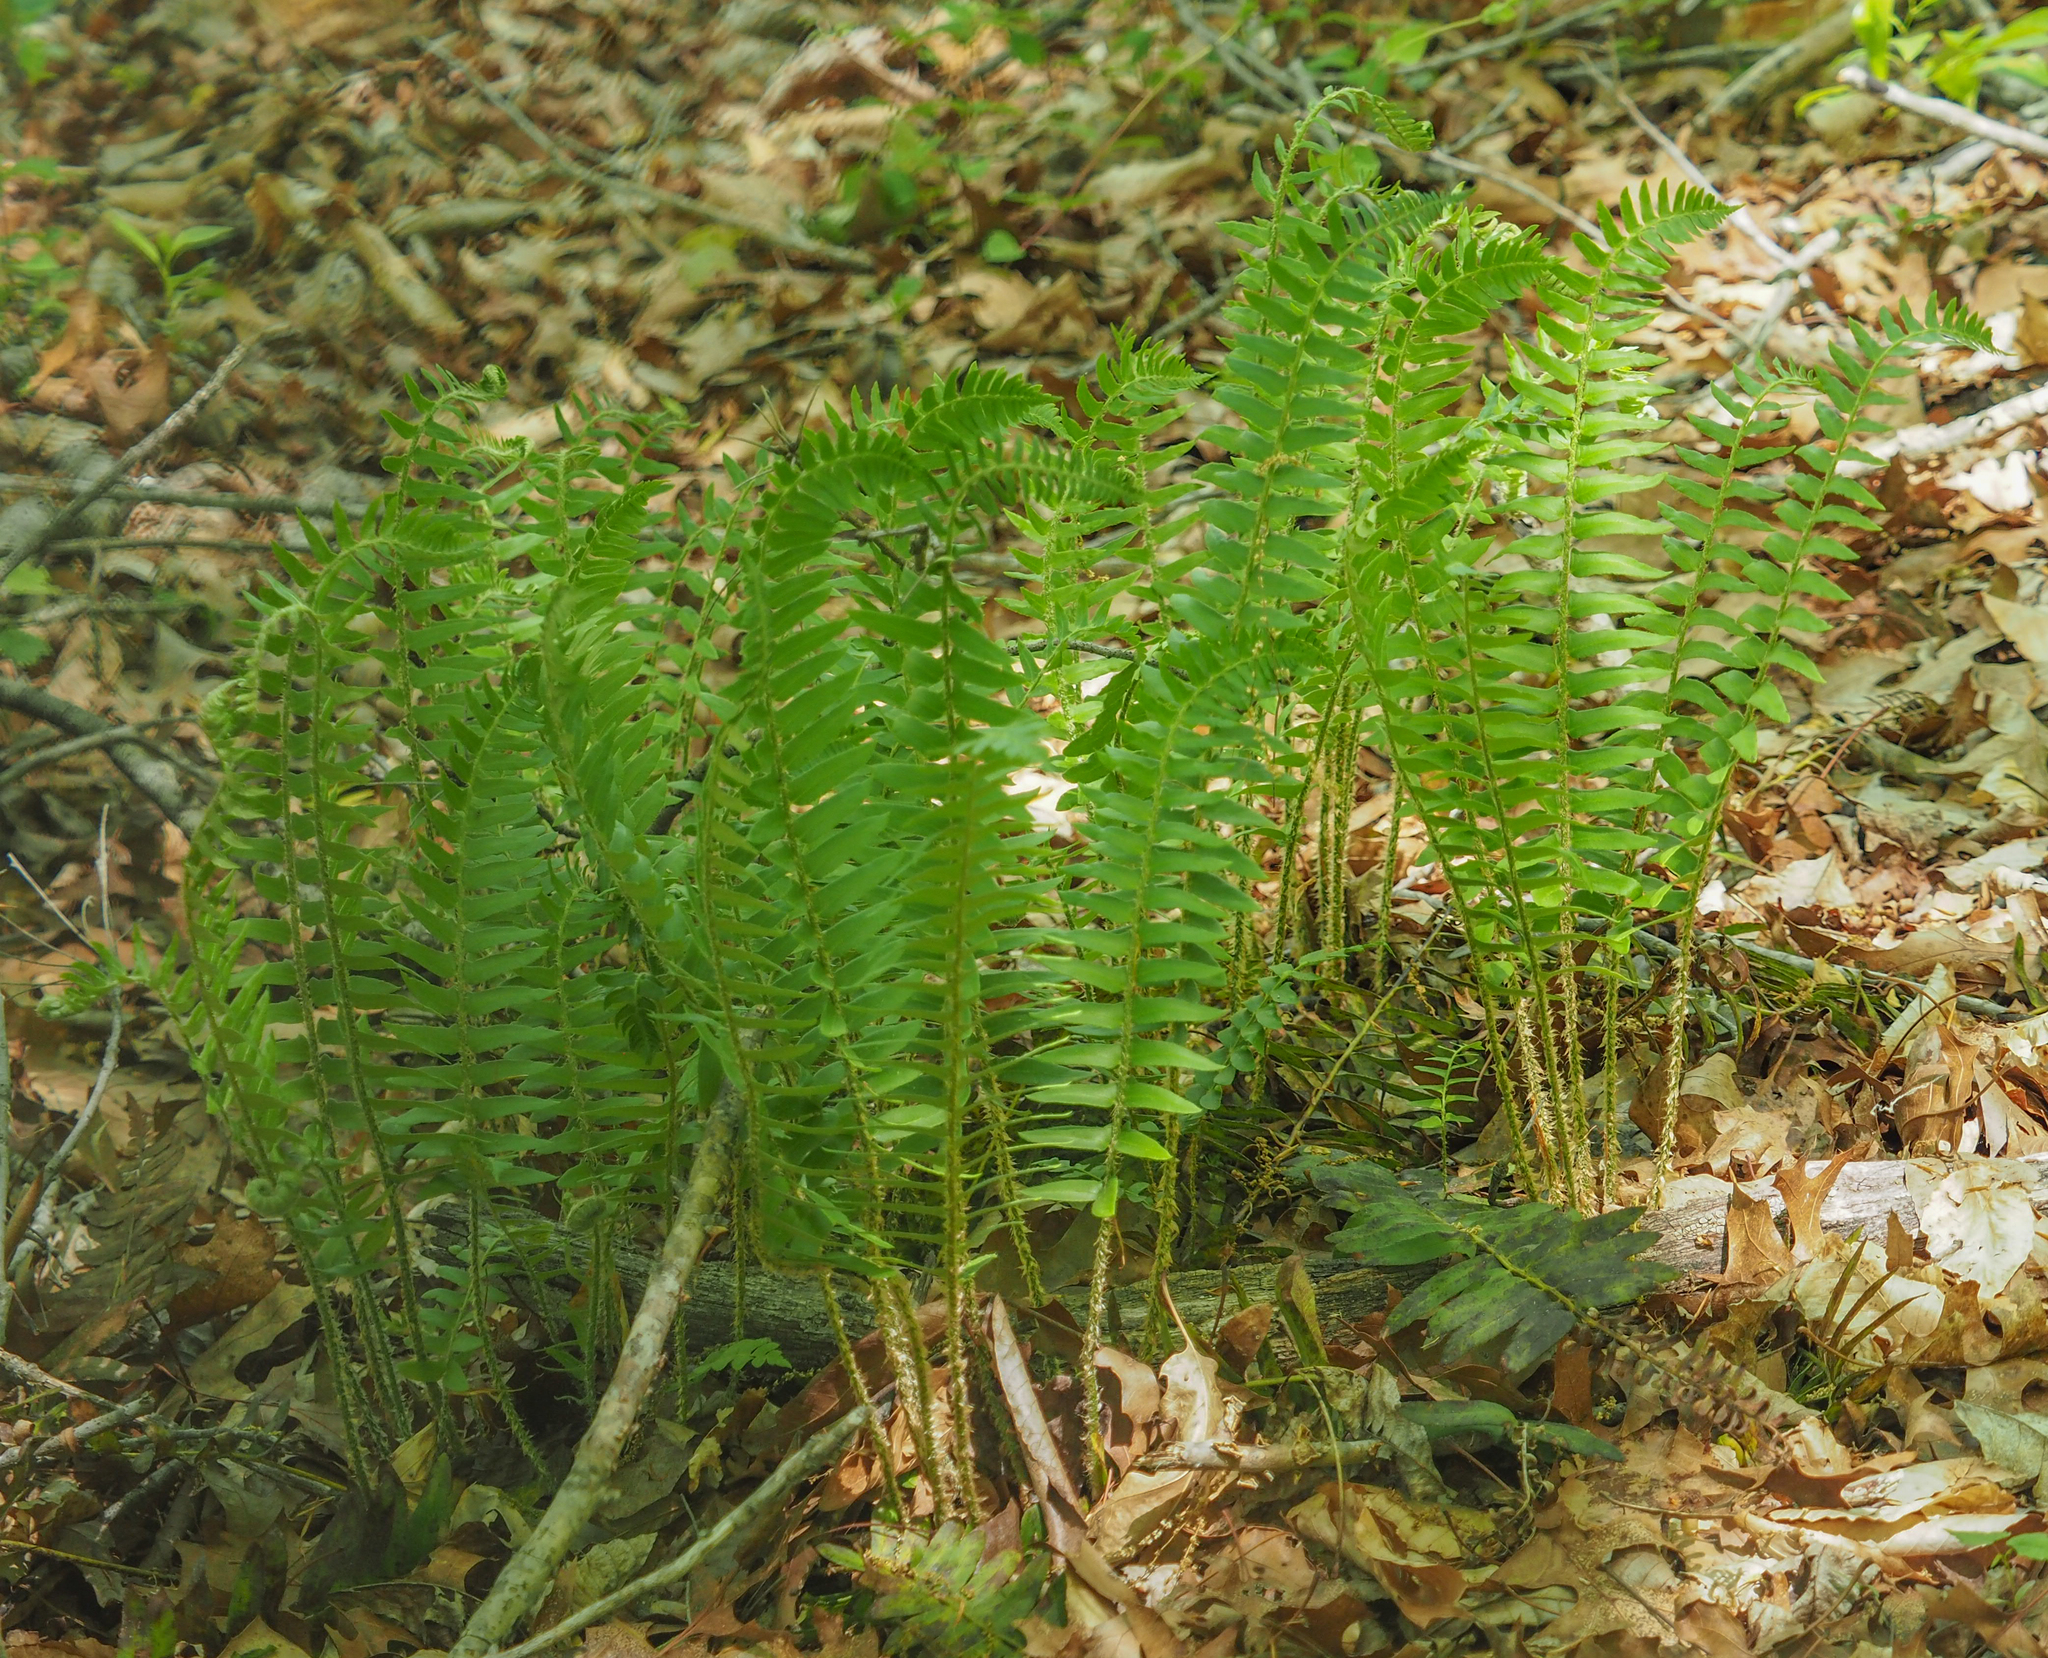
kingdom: Plantae
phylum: Tracheophyta
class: Polypodiopsida
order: Polypodiales
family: Dryopteridaceae
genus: Polystichum
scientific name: Polystichum acrostichoides
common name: Christmas fern
